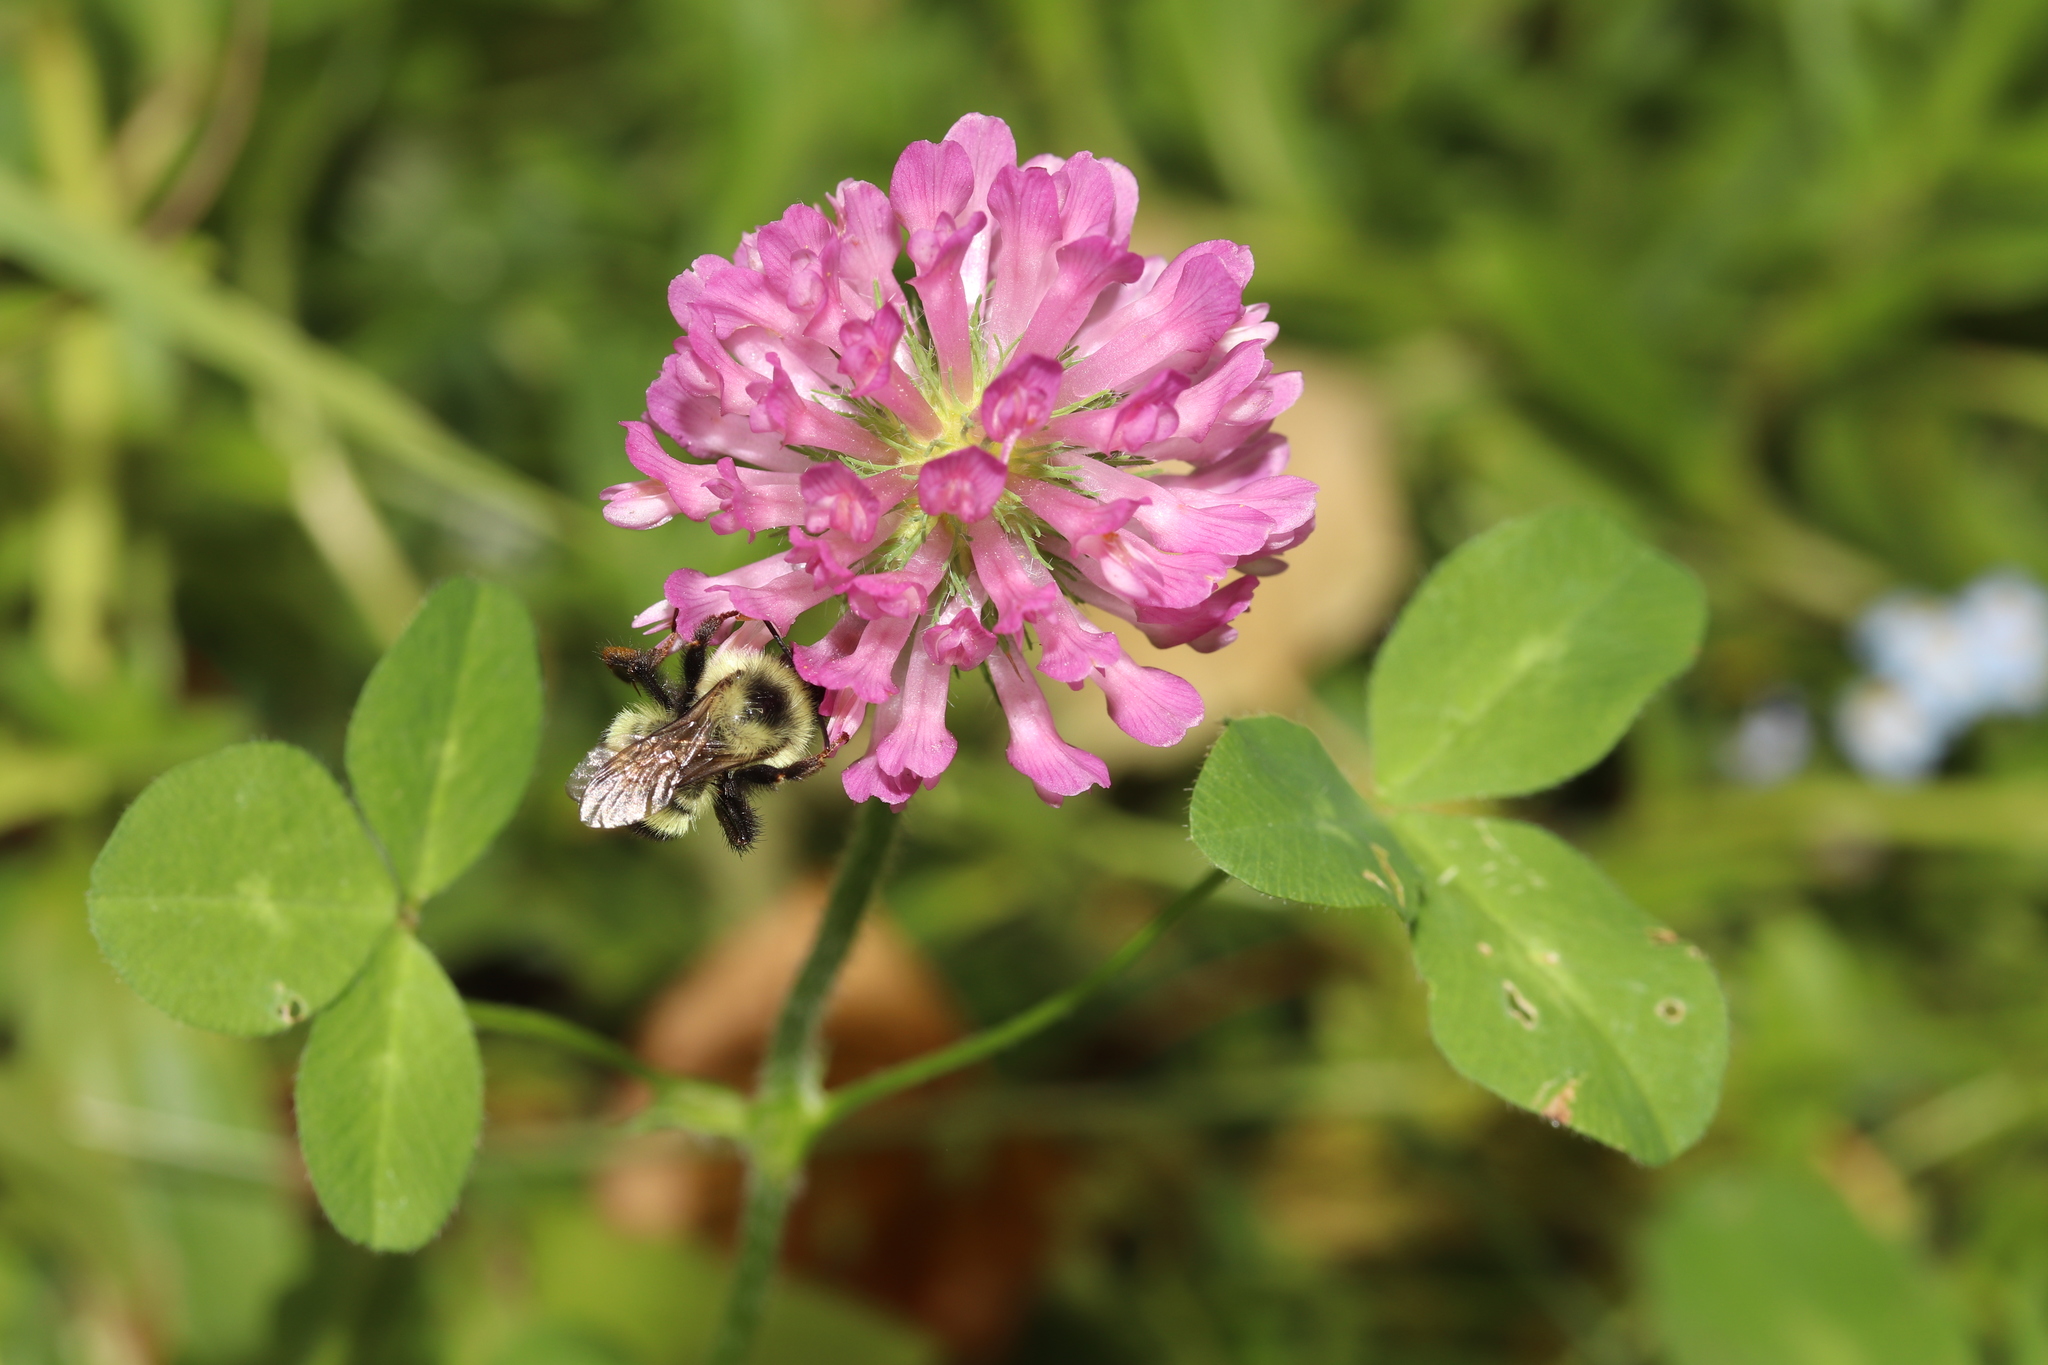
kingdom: Plantae
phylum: Tracheophyta
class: Magnoliopsida
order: Fabales
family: Fabaceae
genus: Trifolium
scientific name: Trifolium pratense
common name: Red clover
